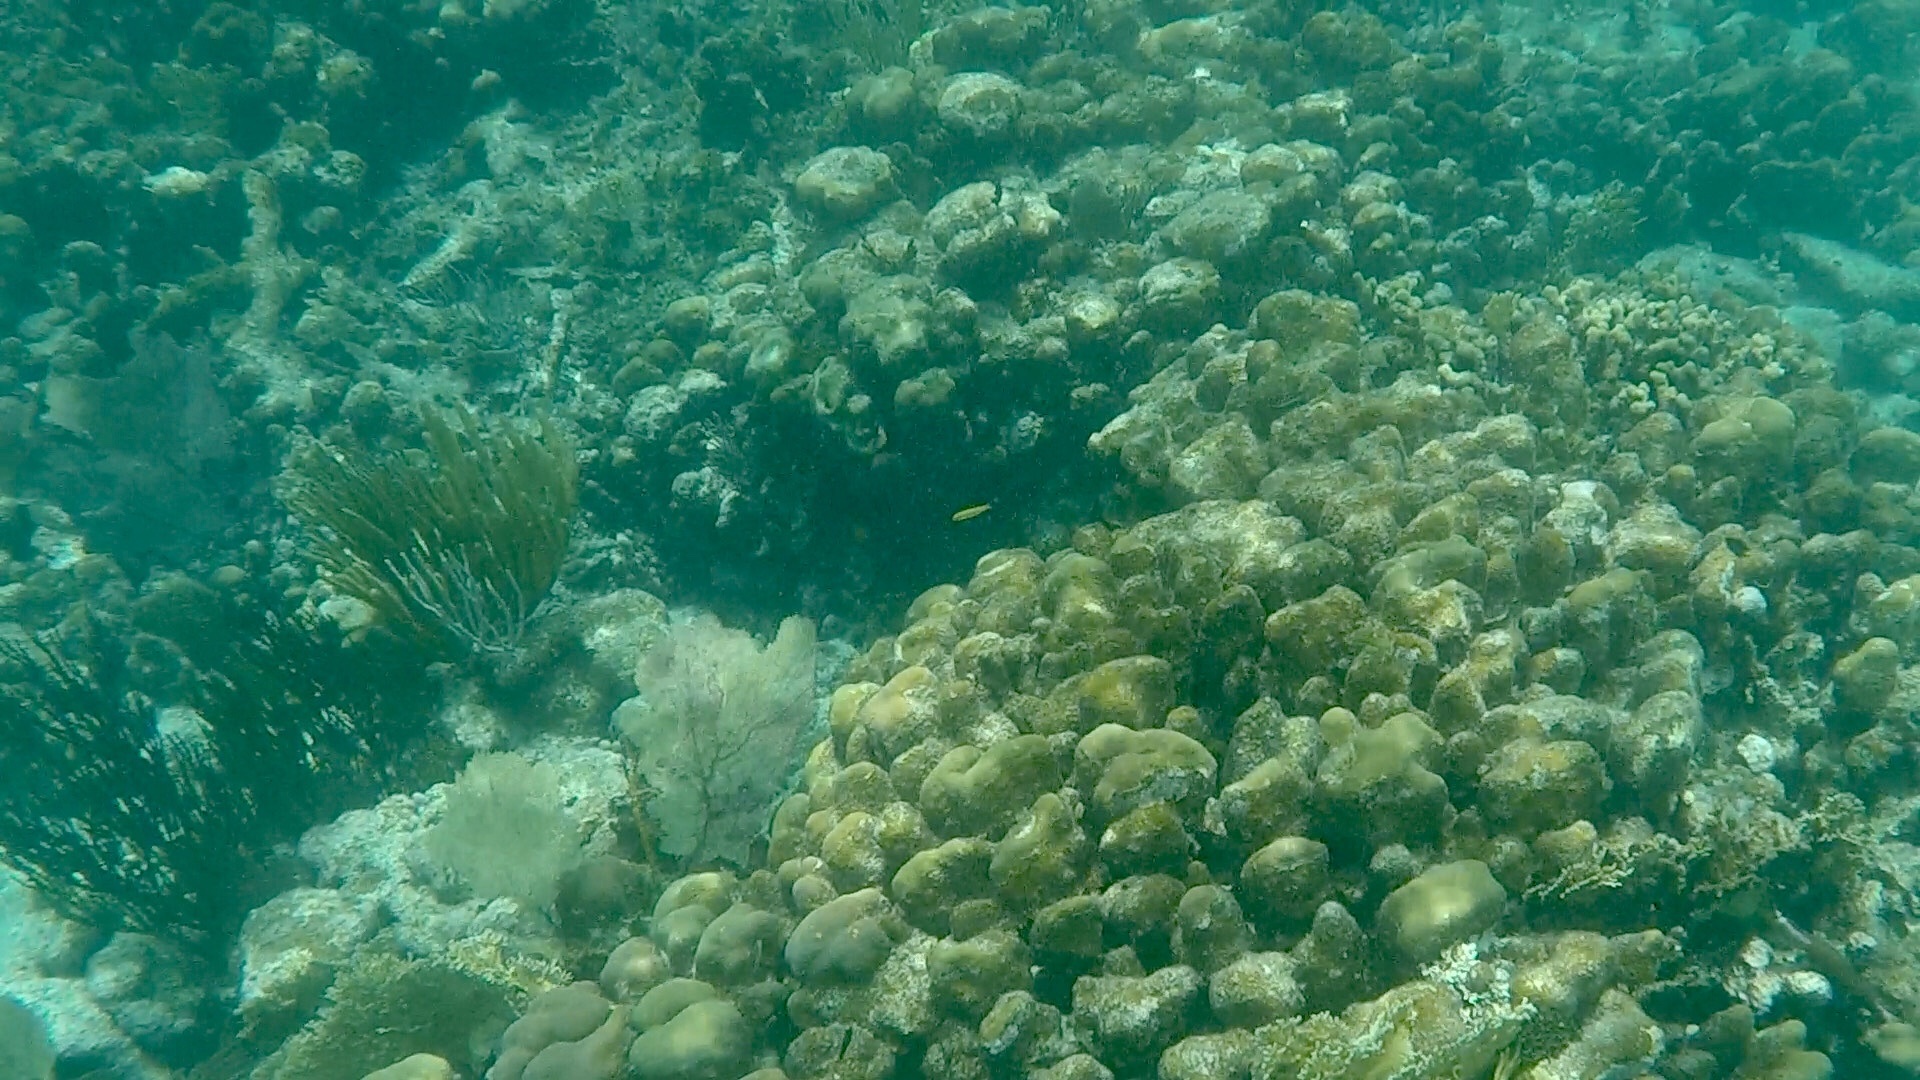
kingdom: Animalia
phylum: Cnidaria
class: Anthozoa
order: Scleractinia
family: Merulinidae
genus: Orbicella
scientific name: Orbicella annularis
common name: Boulder star coral
